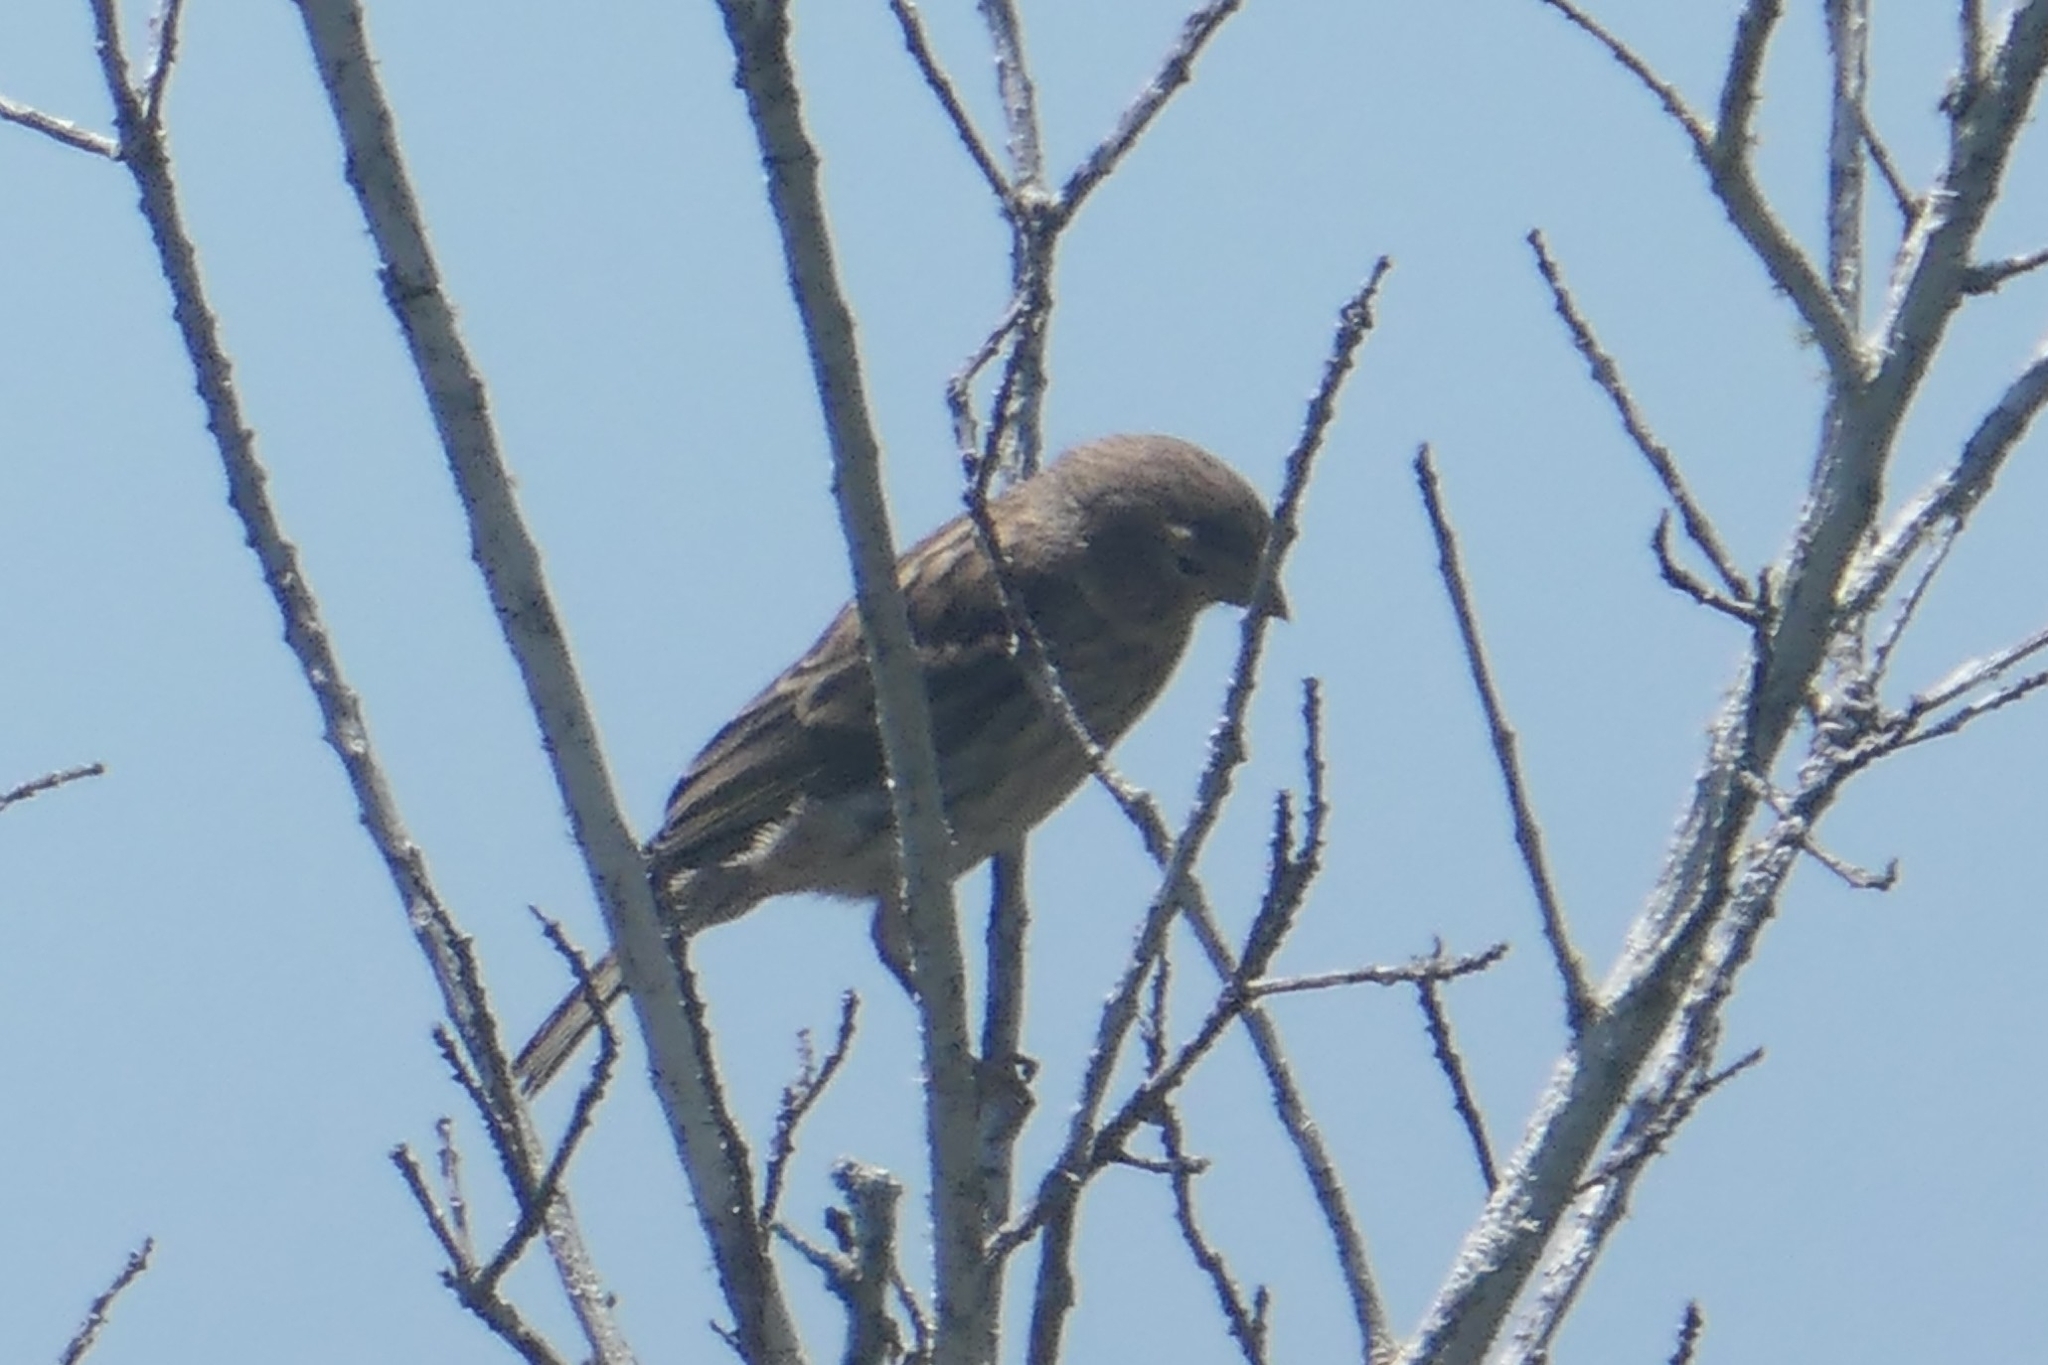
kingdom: Animalia
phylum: Chordata
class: Aves
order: Passeriformes
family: Fringillidae
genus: Serinus
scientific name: Serinus canaria
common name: Atlantic canary
